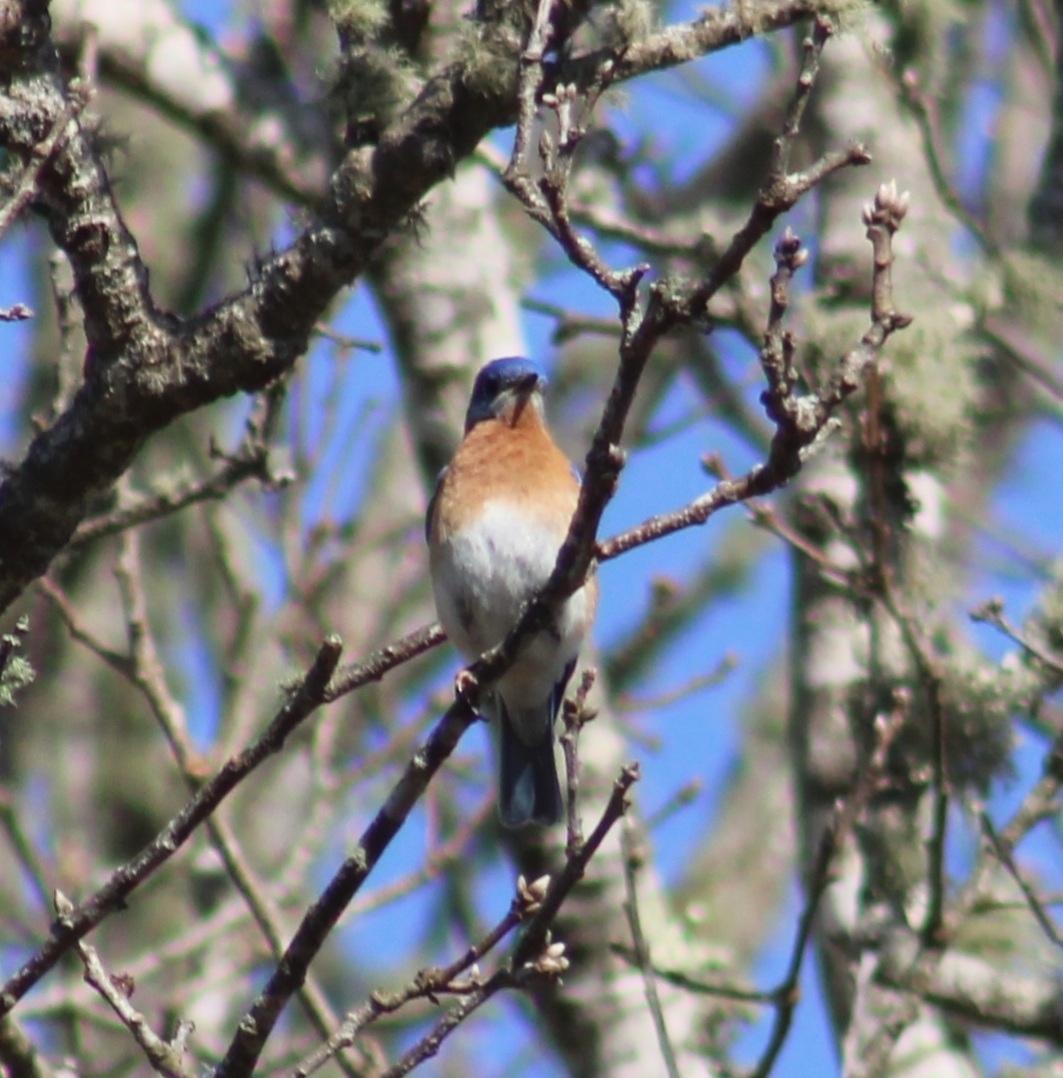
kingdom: Animalia
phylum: Chordata
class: Aves
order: Passeriformes
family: Turdidae
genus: Sialia
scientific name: Sialia sialis
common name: Eastern bluebird
